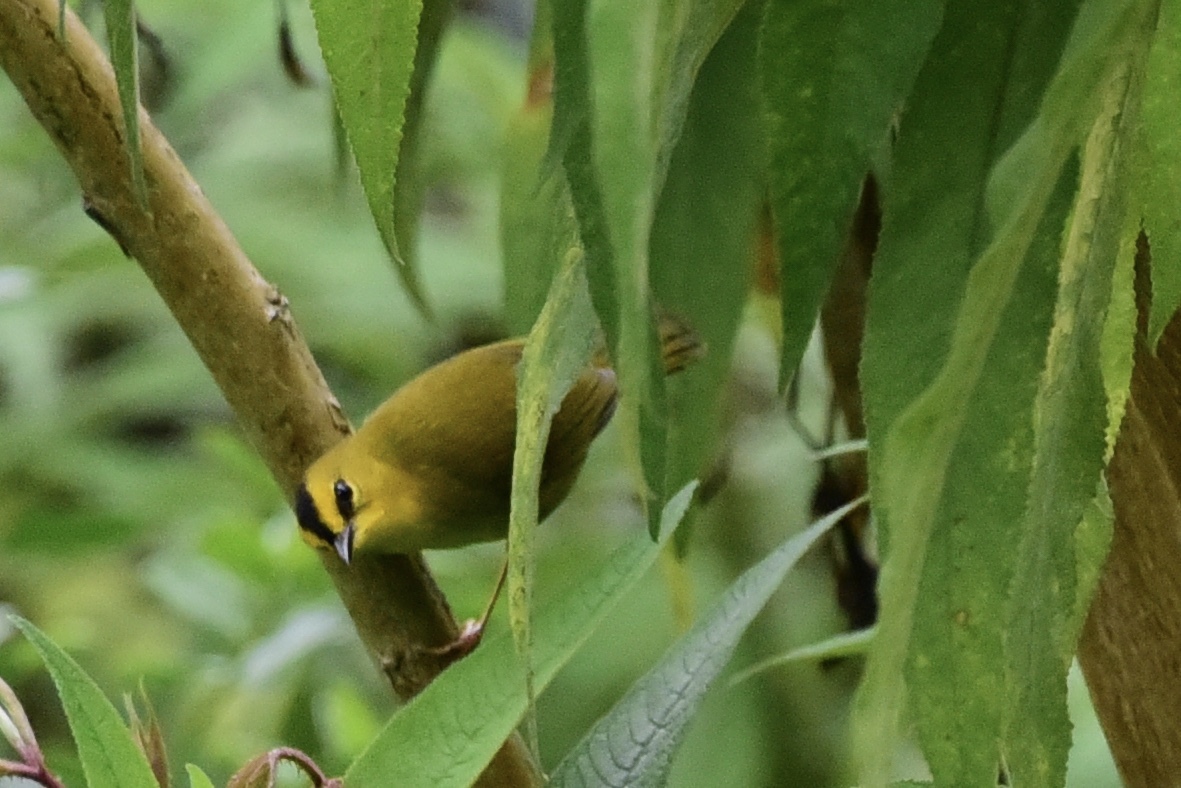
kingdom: Animalia
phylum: Chordata
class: Aves
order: Passeriformes
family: Parulidae
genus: Myiothlypis
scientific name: Myiothlypis nigrocristata
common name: Black-crested warbler
